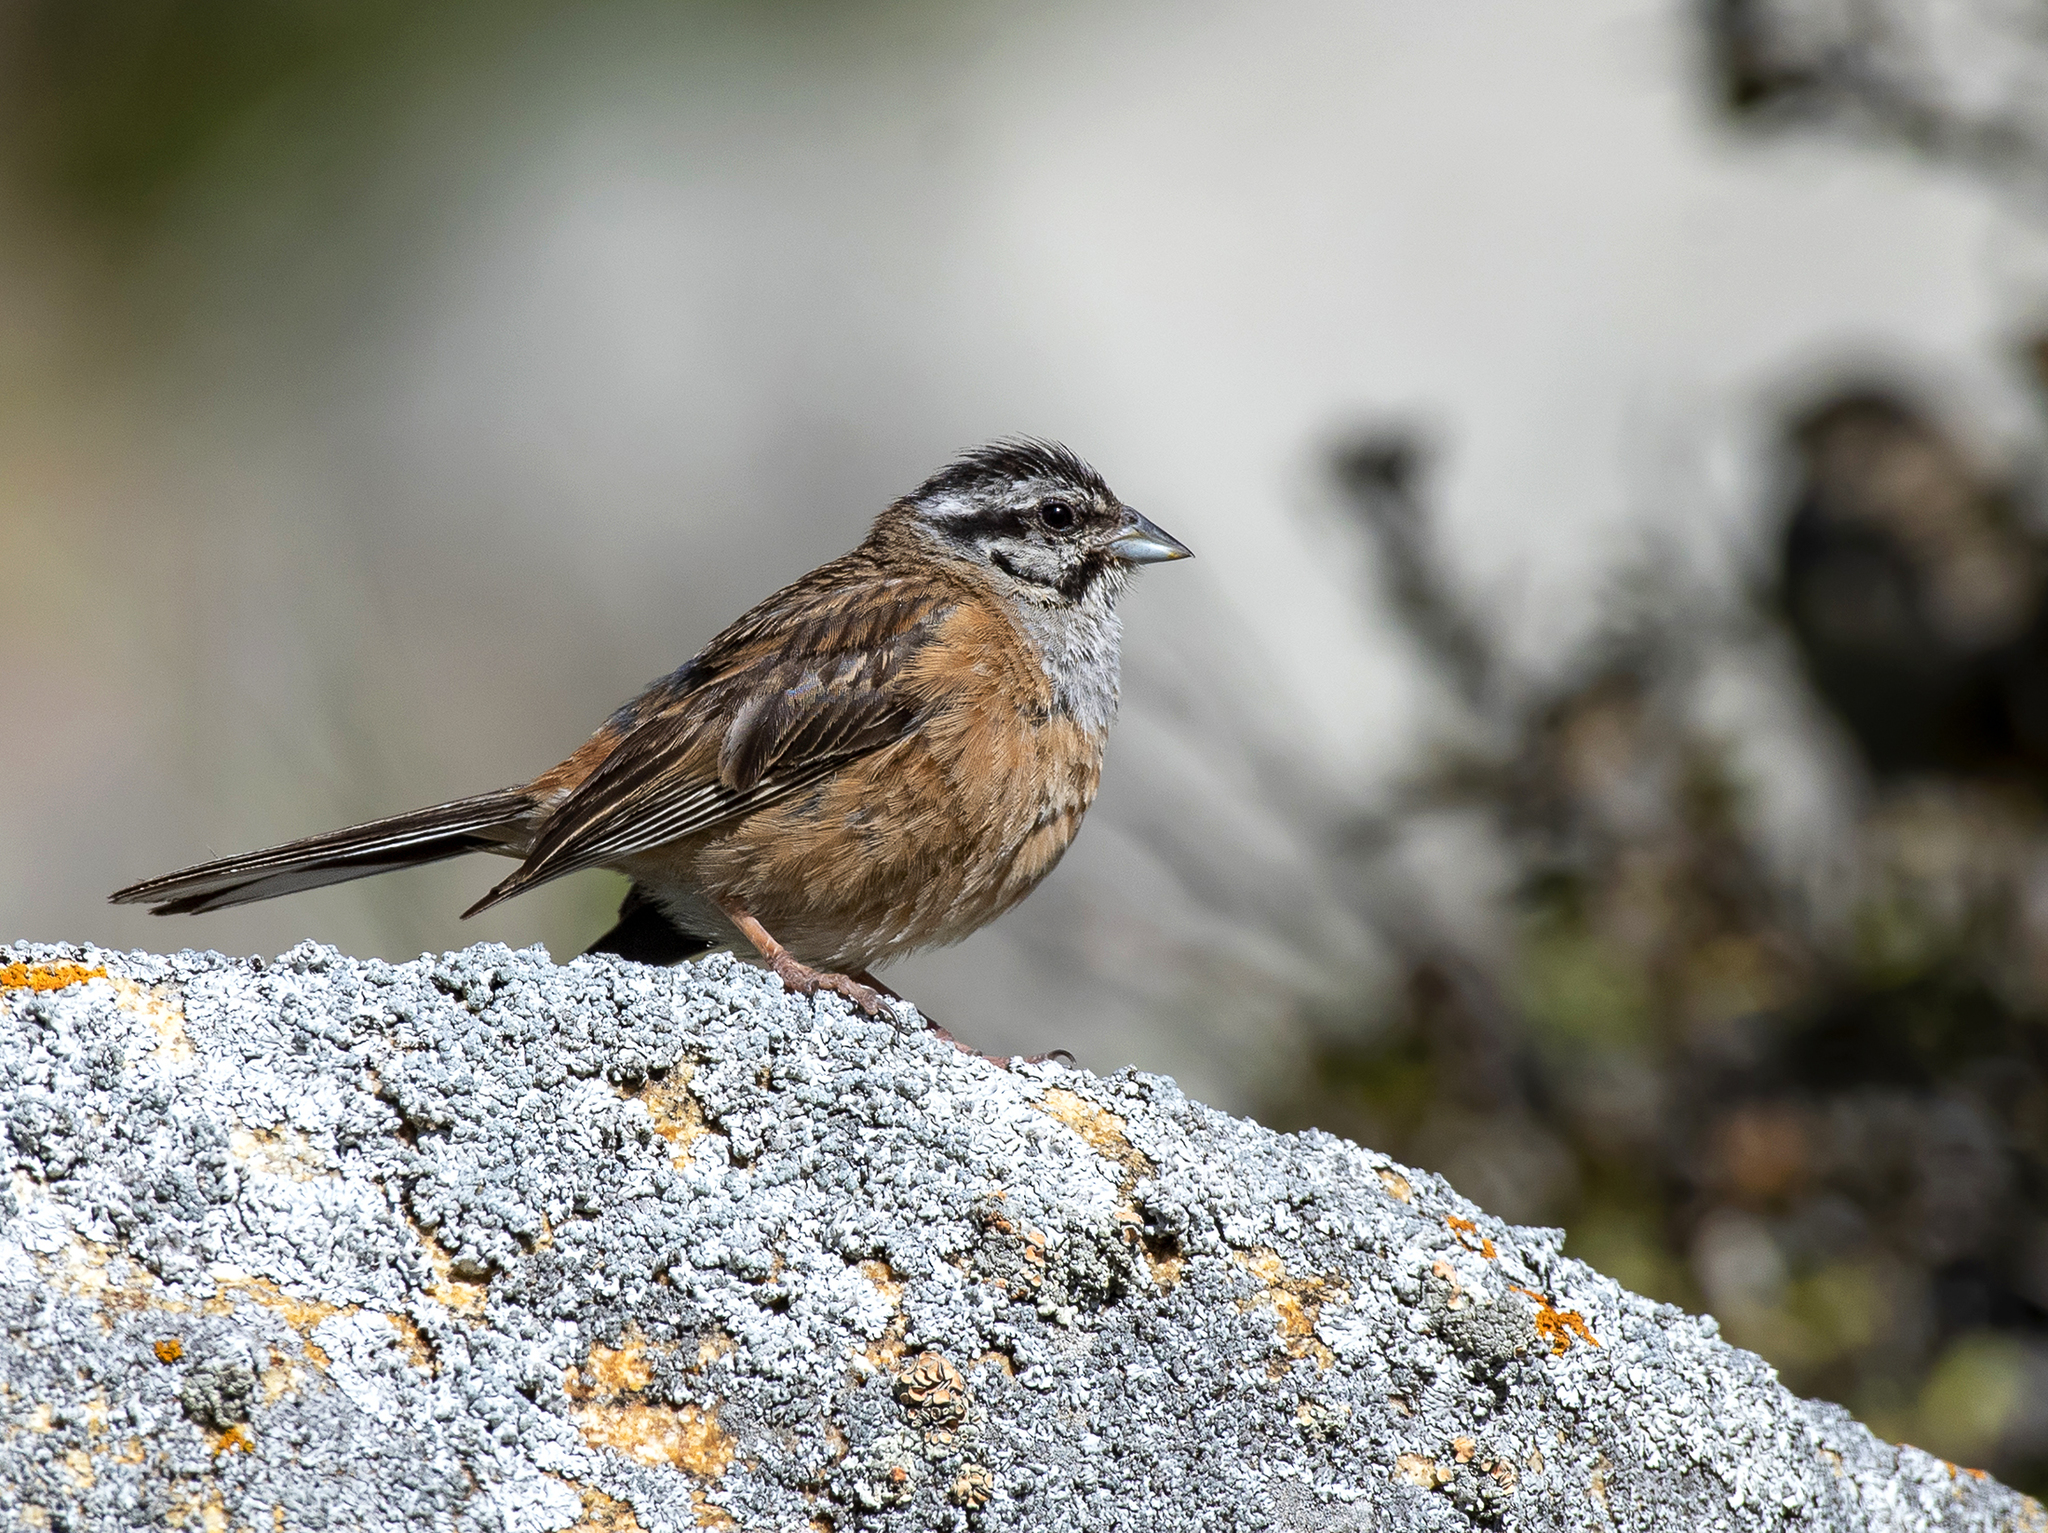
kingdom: Animalia
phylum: Chordata
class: Aves
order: Passeriformes
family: Emberizidae
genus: Emberiza
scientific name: Emberiza cia
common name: Rock bunting
